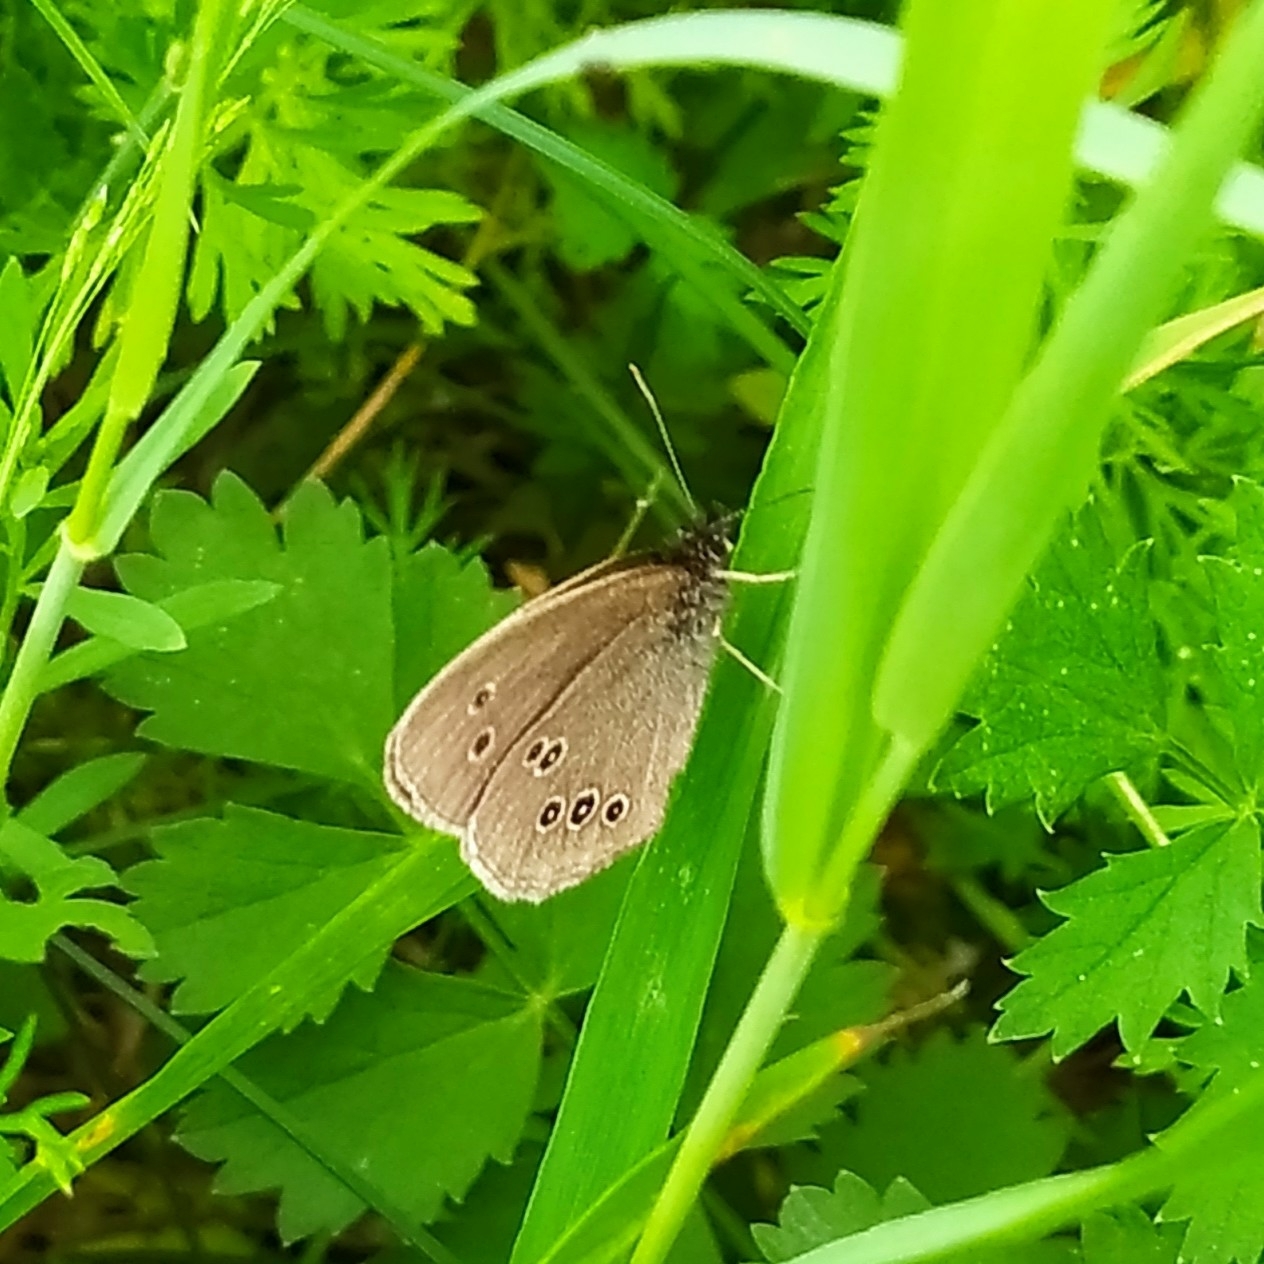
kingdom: Animalia
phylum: Arthropoda
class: Insecta
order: Lepidoptera
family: Nymphalidae
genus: Aphantopus
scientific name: Aphantopus hyperantus
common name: Ringlet
